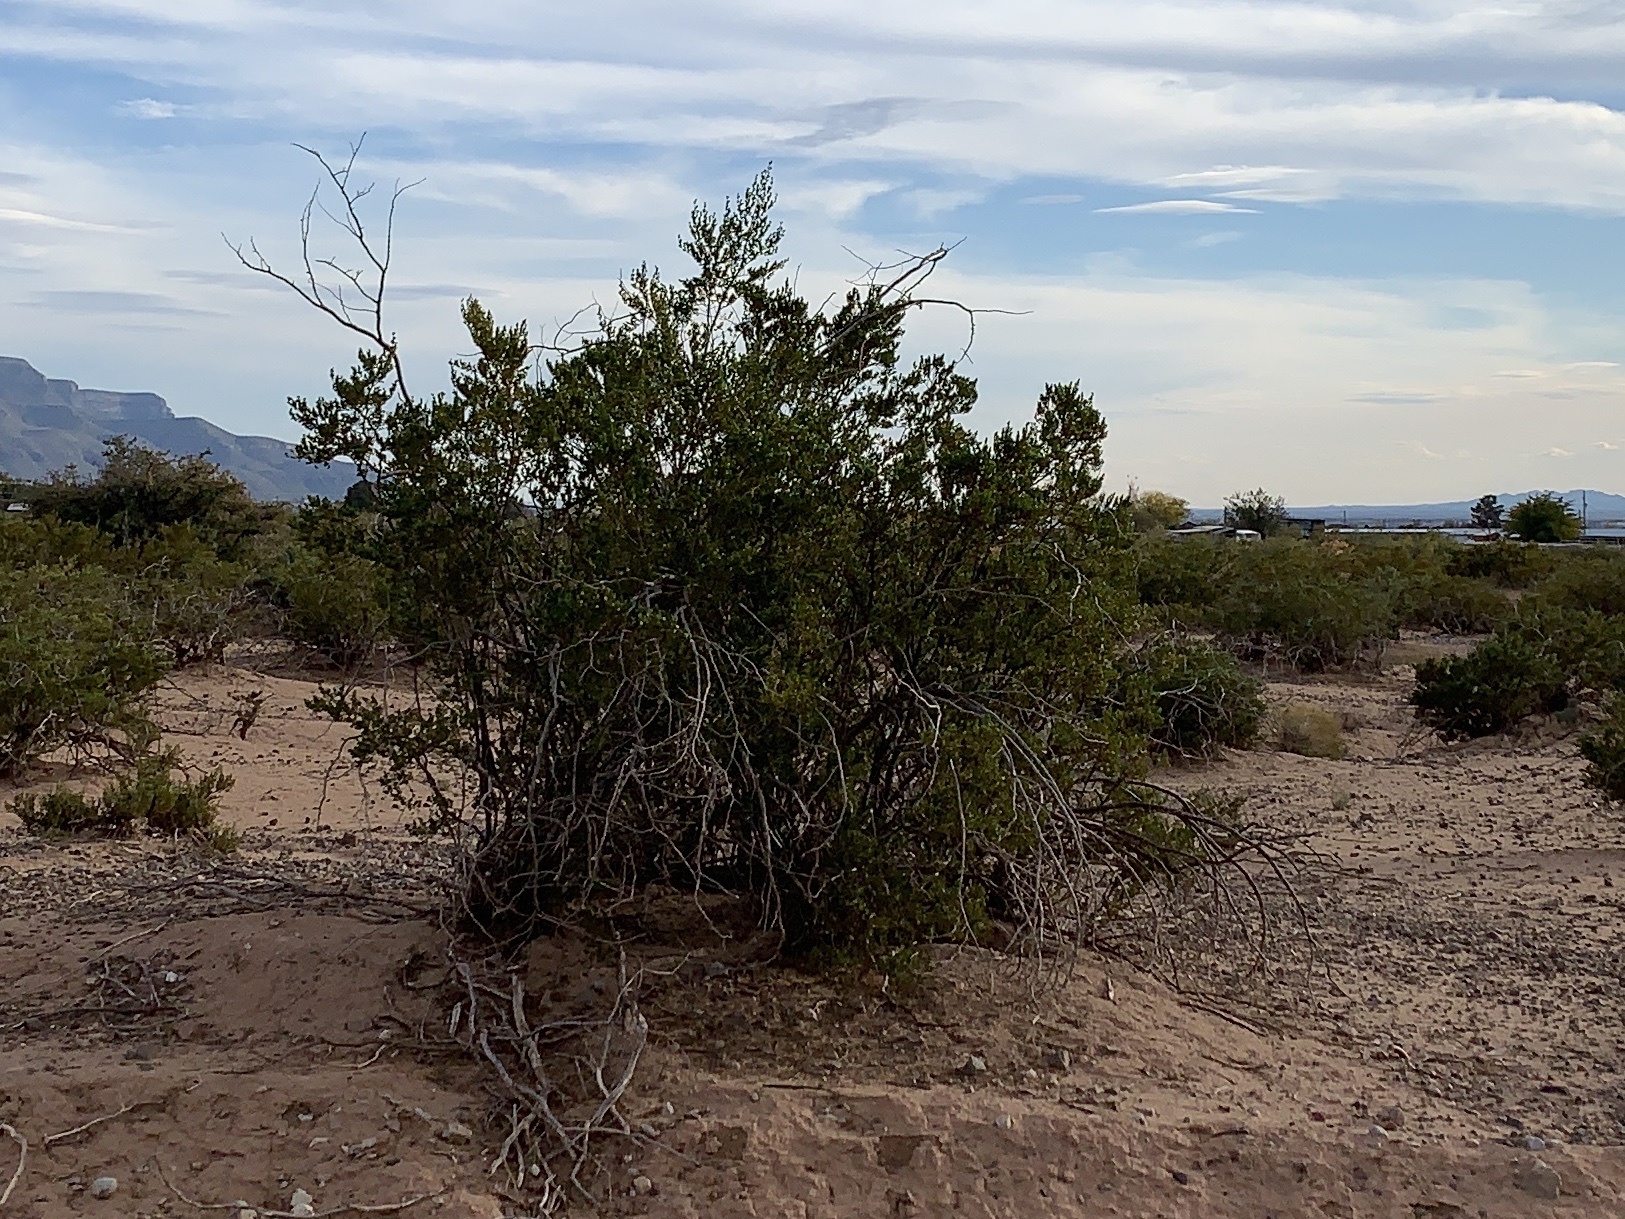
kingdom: Plantae
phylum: Tracheophyta
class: Magnoliopsida
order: Zygophyllales
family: Zygophyllaceae
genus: Larrea
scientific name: Larrea tridentata
